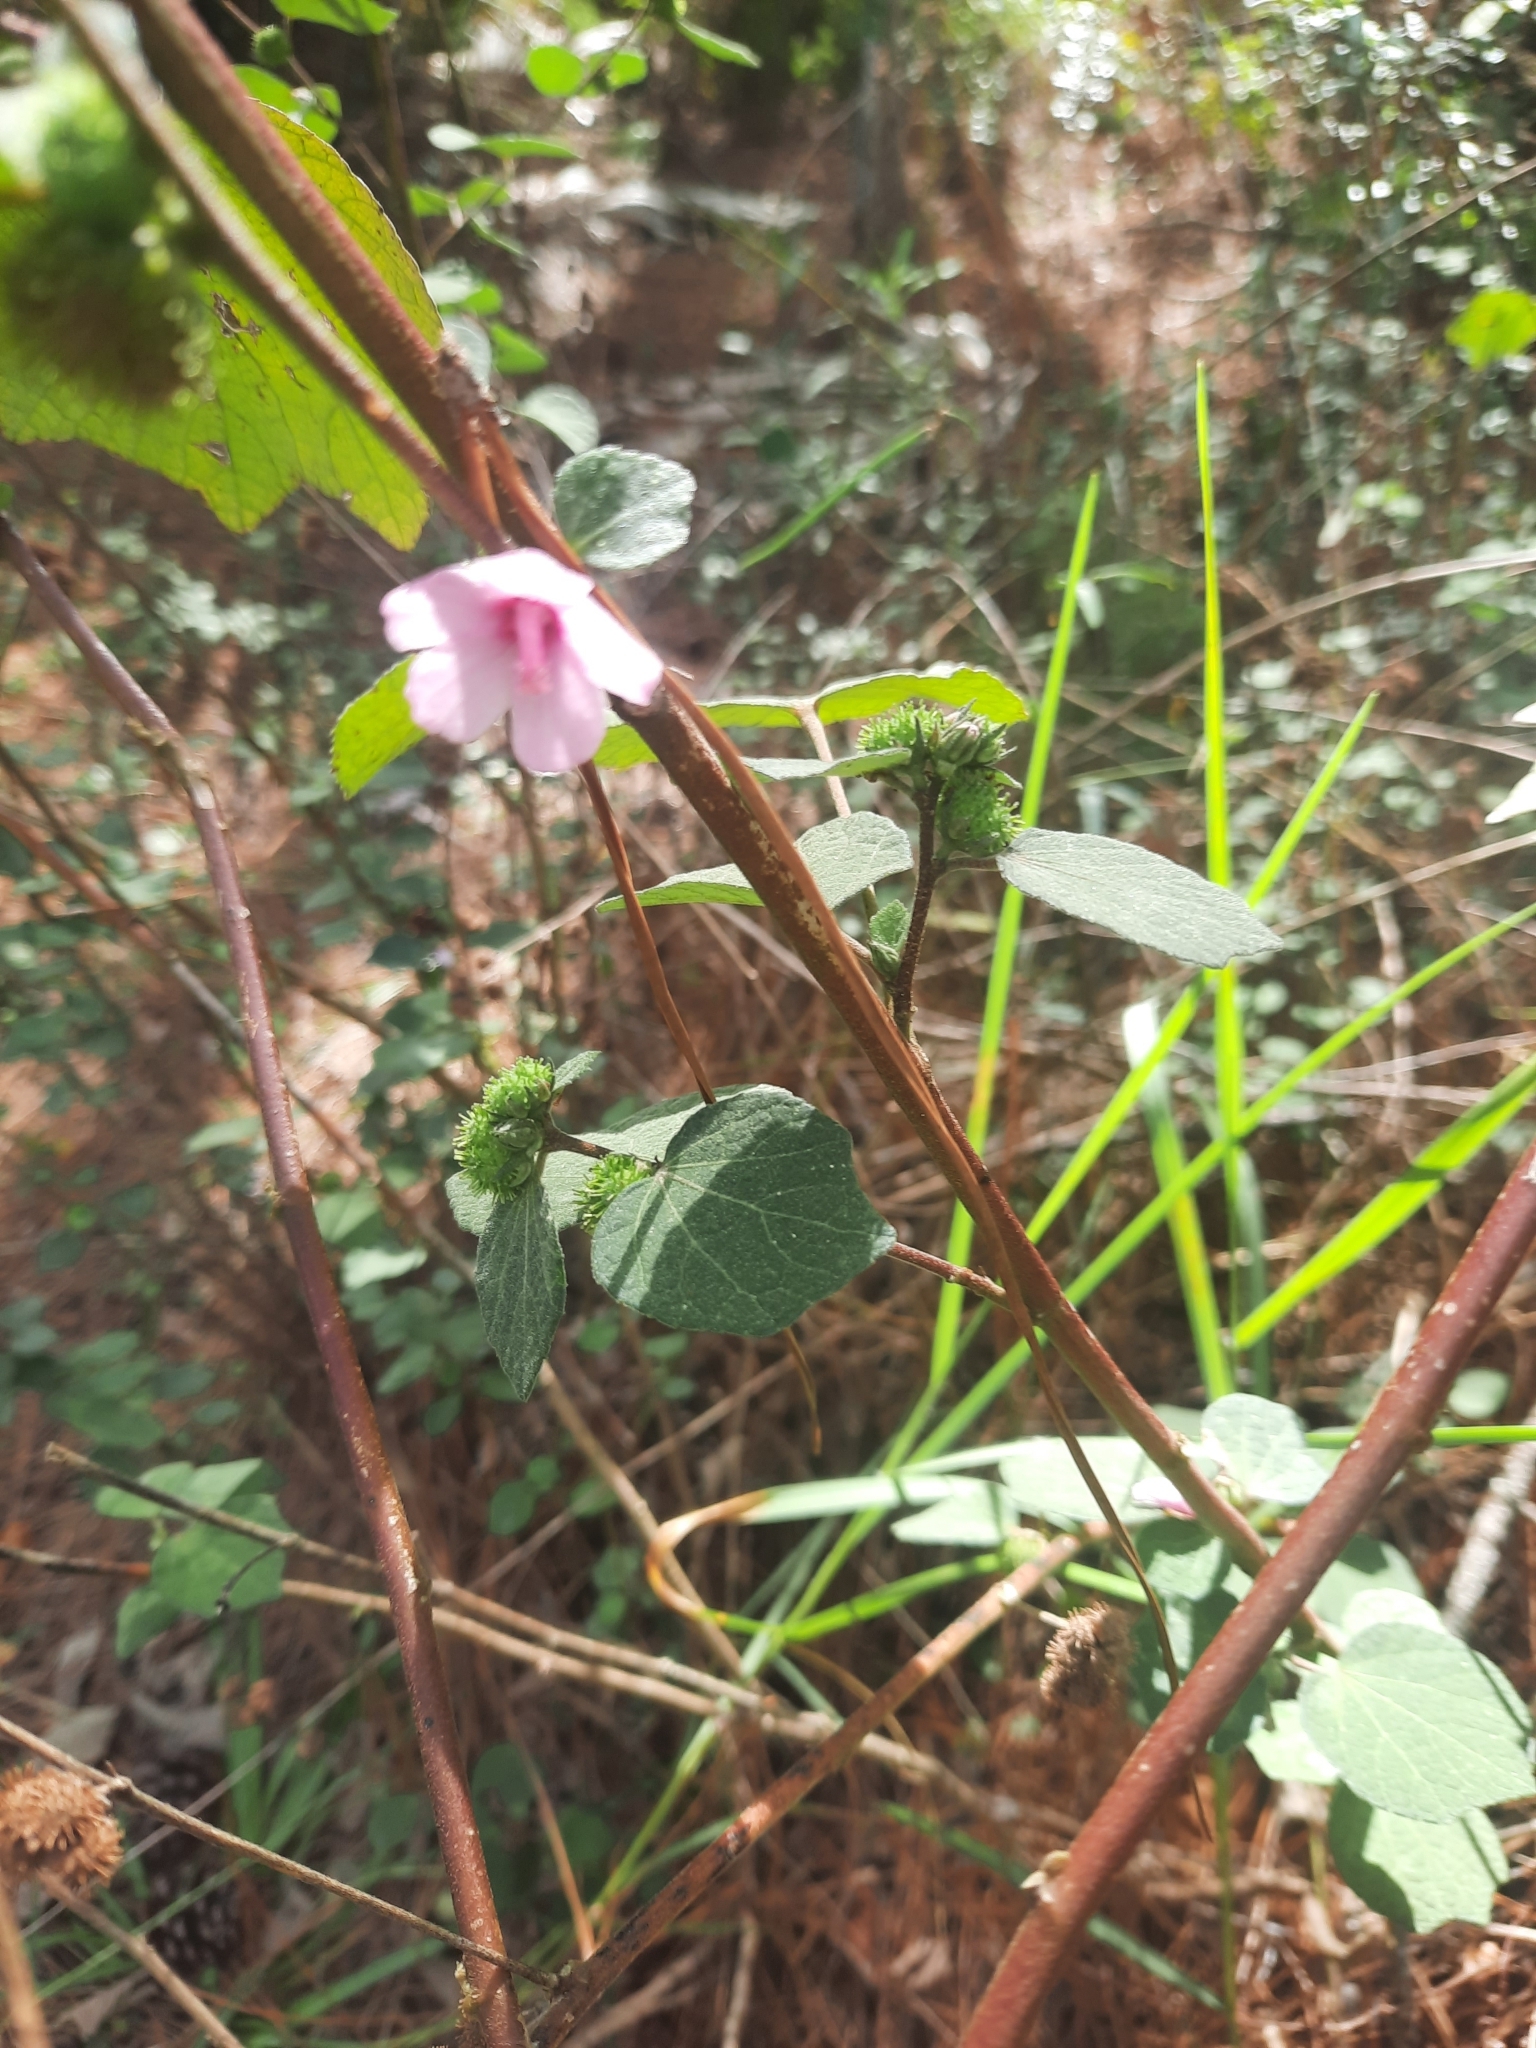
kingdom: Plantae
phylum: Tracheophyta
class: Magnoliopsida
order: Malvales
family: Malvaceae
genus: Urena
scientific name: Urena lobata
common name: Caesarweed
